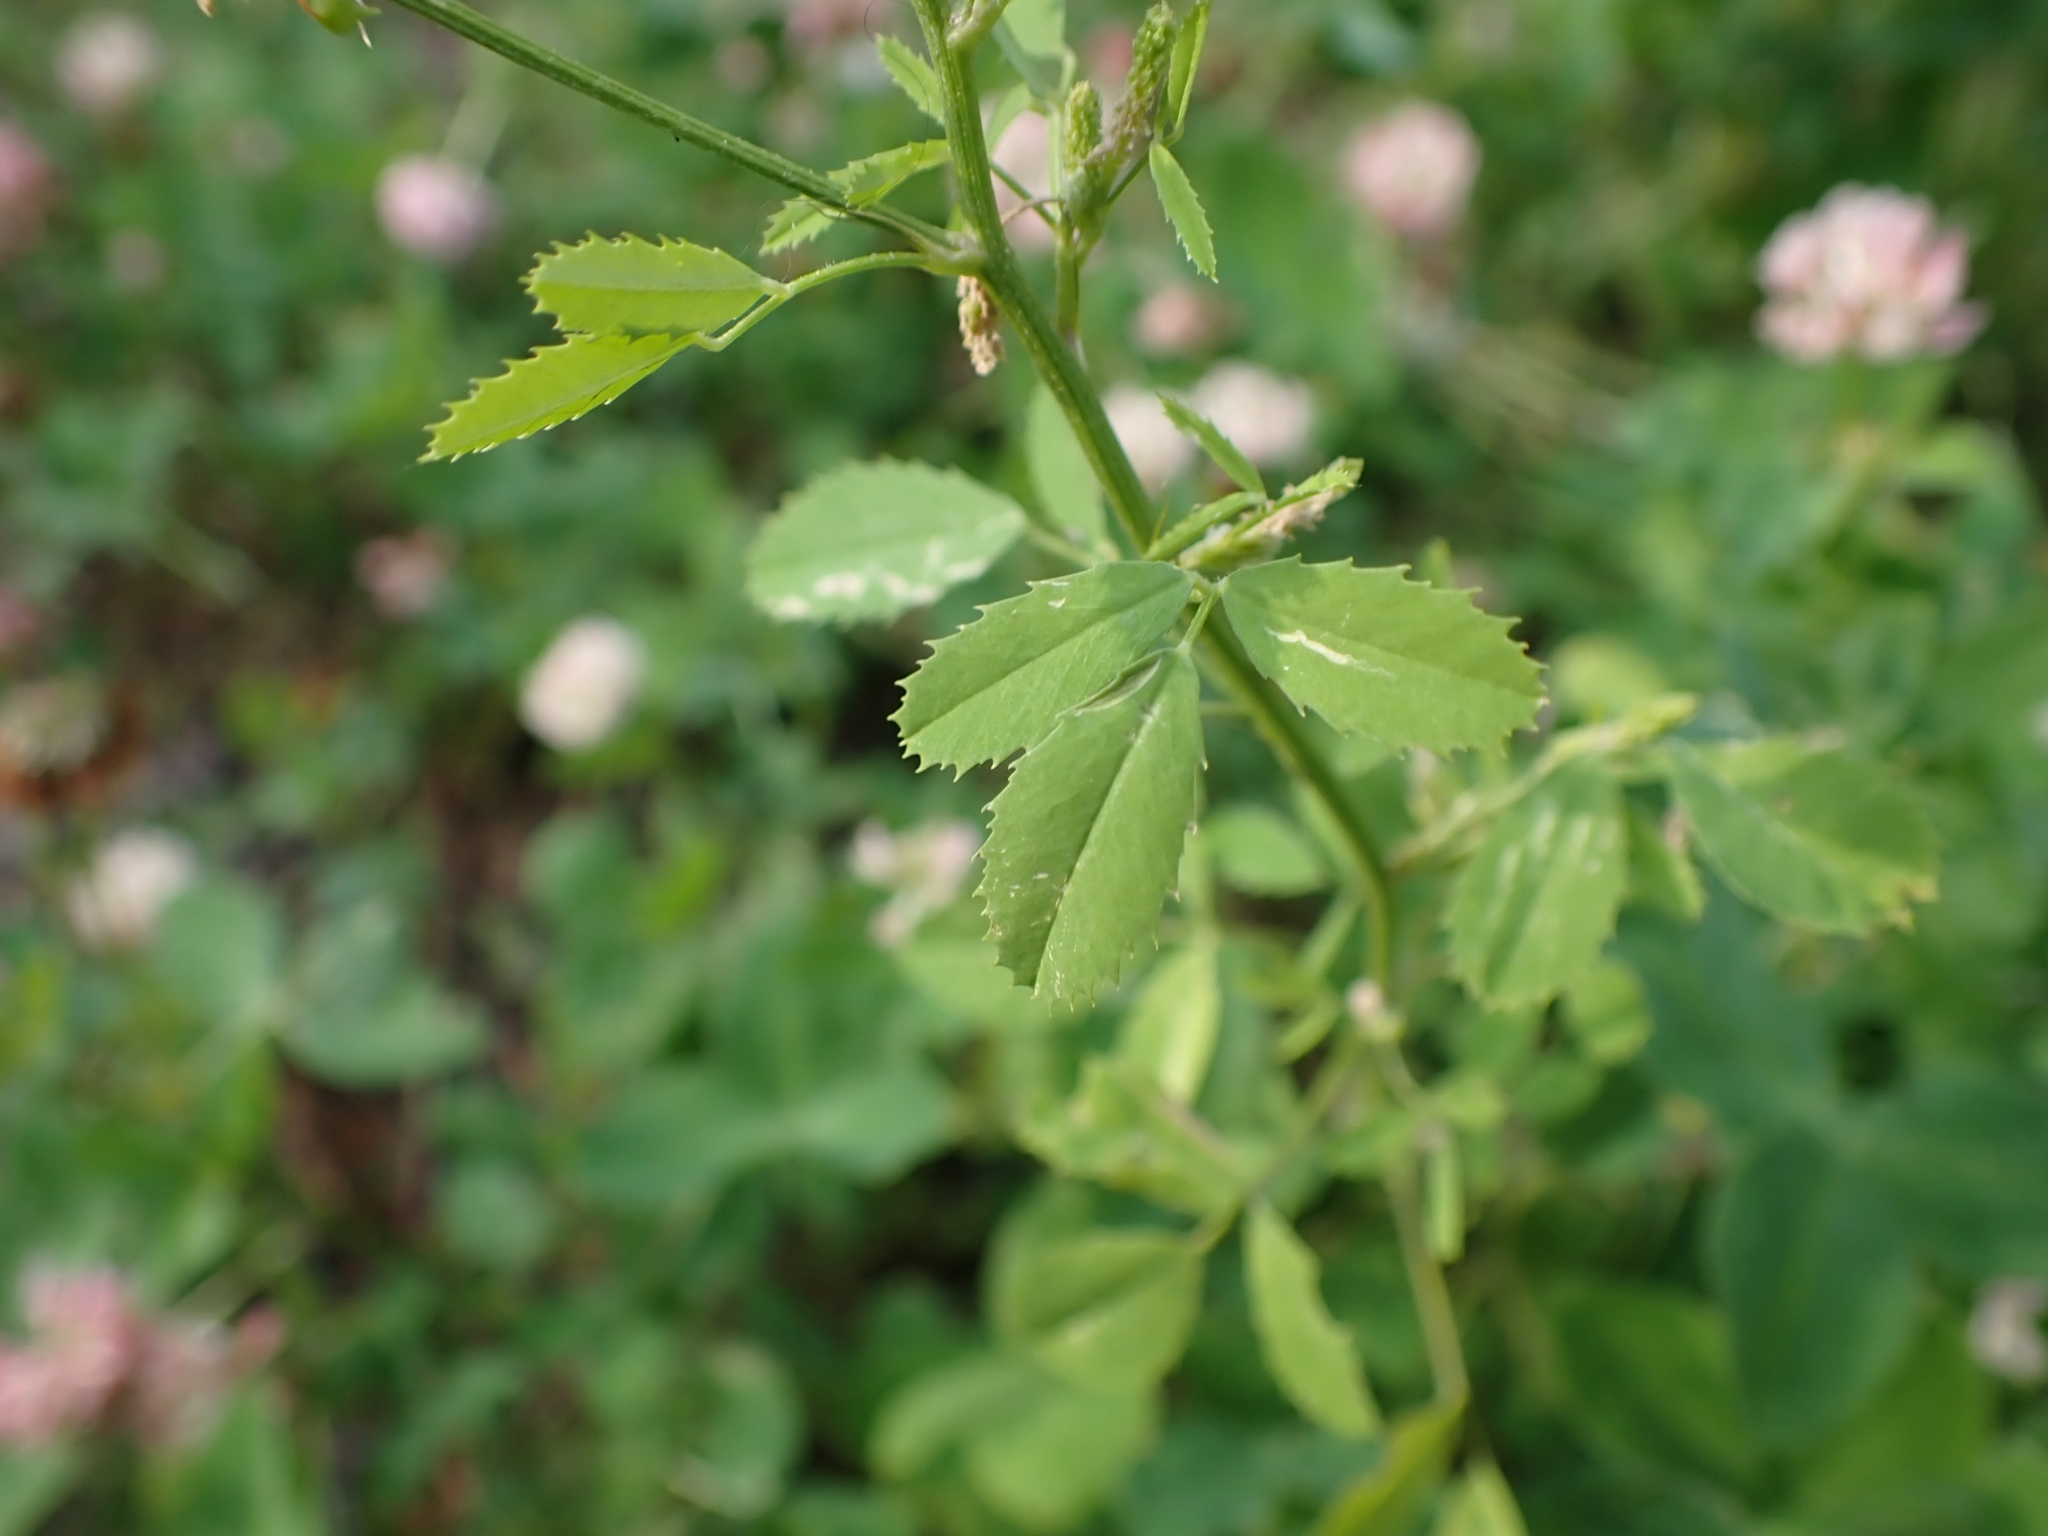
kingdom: Plantae
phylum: Tracheophyta
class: Magnoliopsida
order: Fabales
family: Fabaceae
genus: Melilotus
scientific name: Melilotus officinalis
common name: Sweetclover
